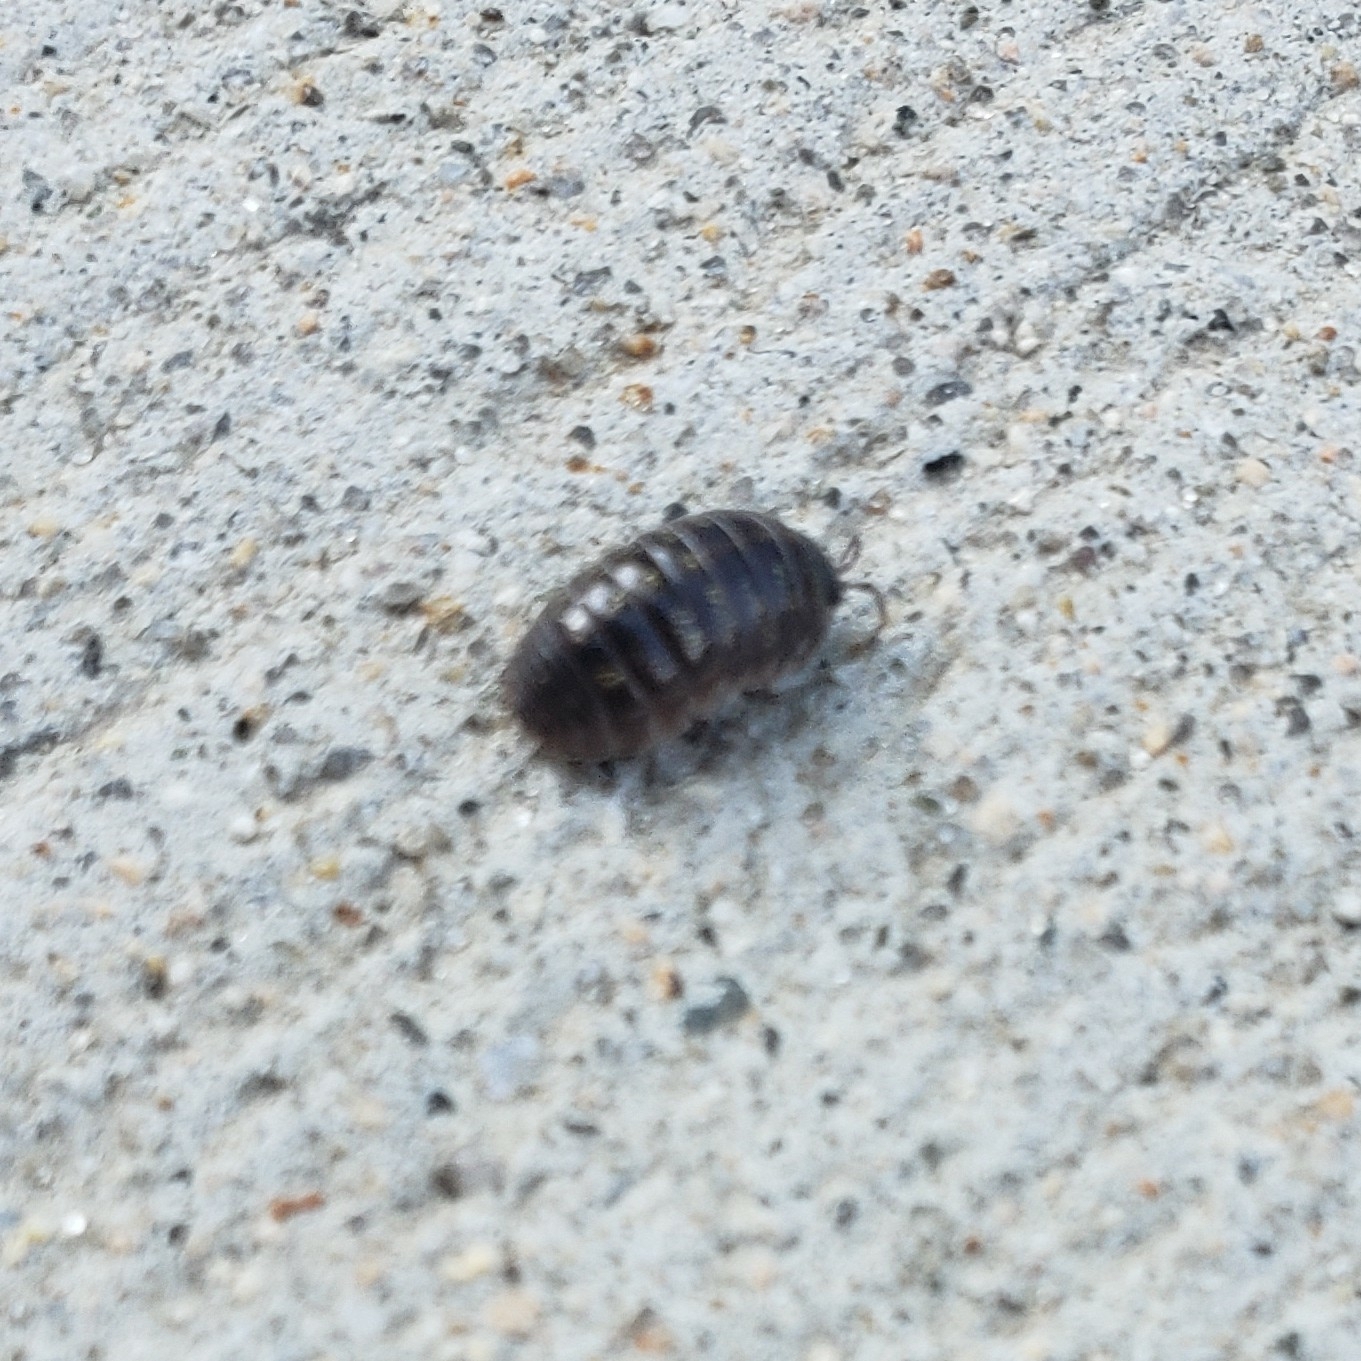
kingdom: Animalia
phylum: Arthropoda
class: Malacostraca
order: Isopoda
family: Armadillidiidae
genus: Armadillidium
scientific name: Armadillidium vulgare
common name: Common pill woodlouse
